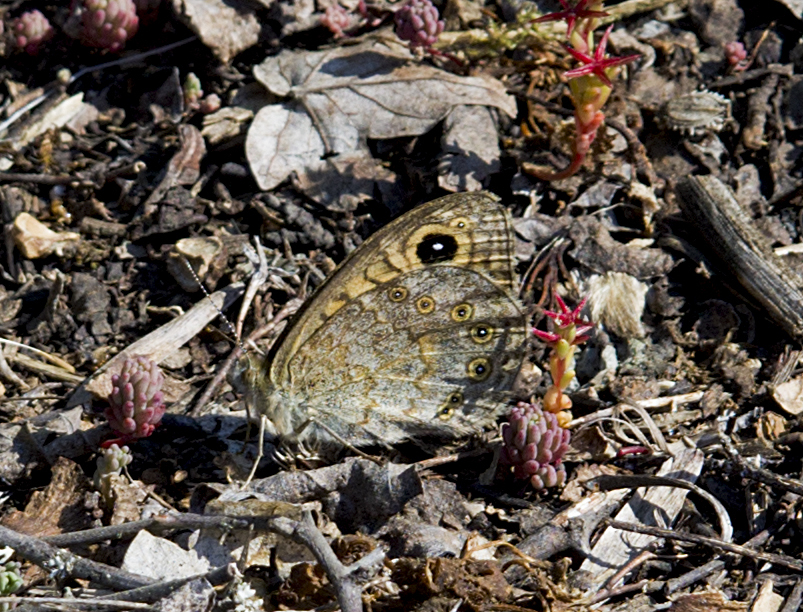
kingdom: Animalia
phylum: Arthropoda
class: Insecta
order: Lepidoptera
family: Nymphalidae
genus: Pararge
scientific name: Pararge Lasiommata megera
